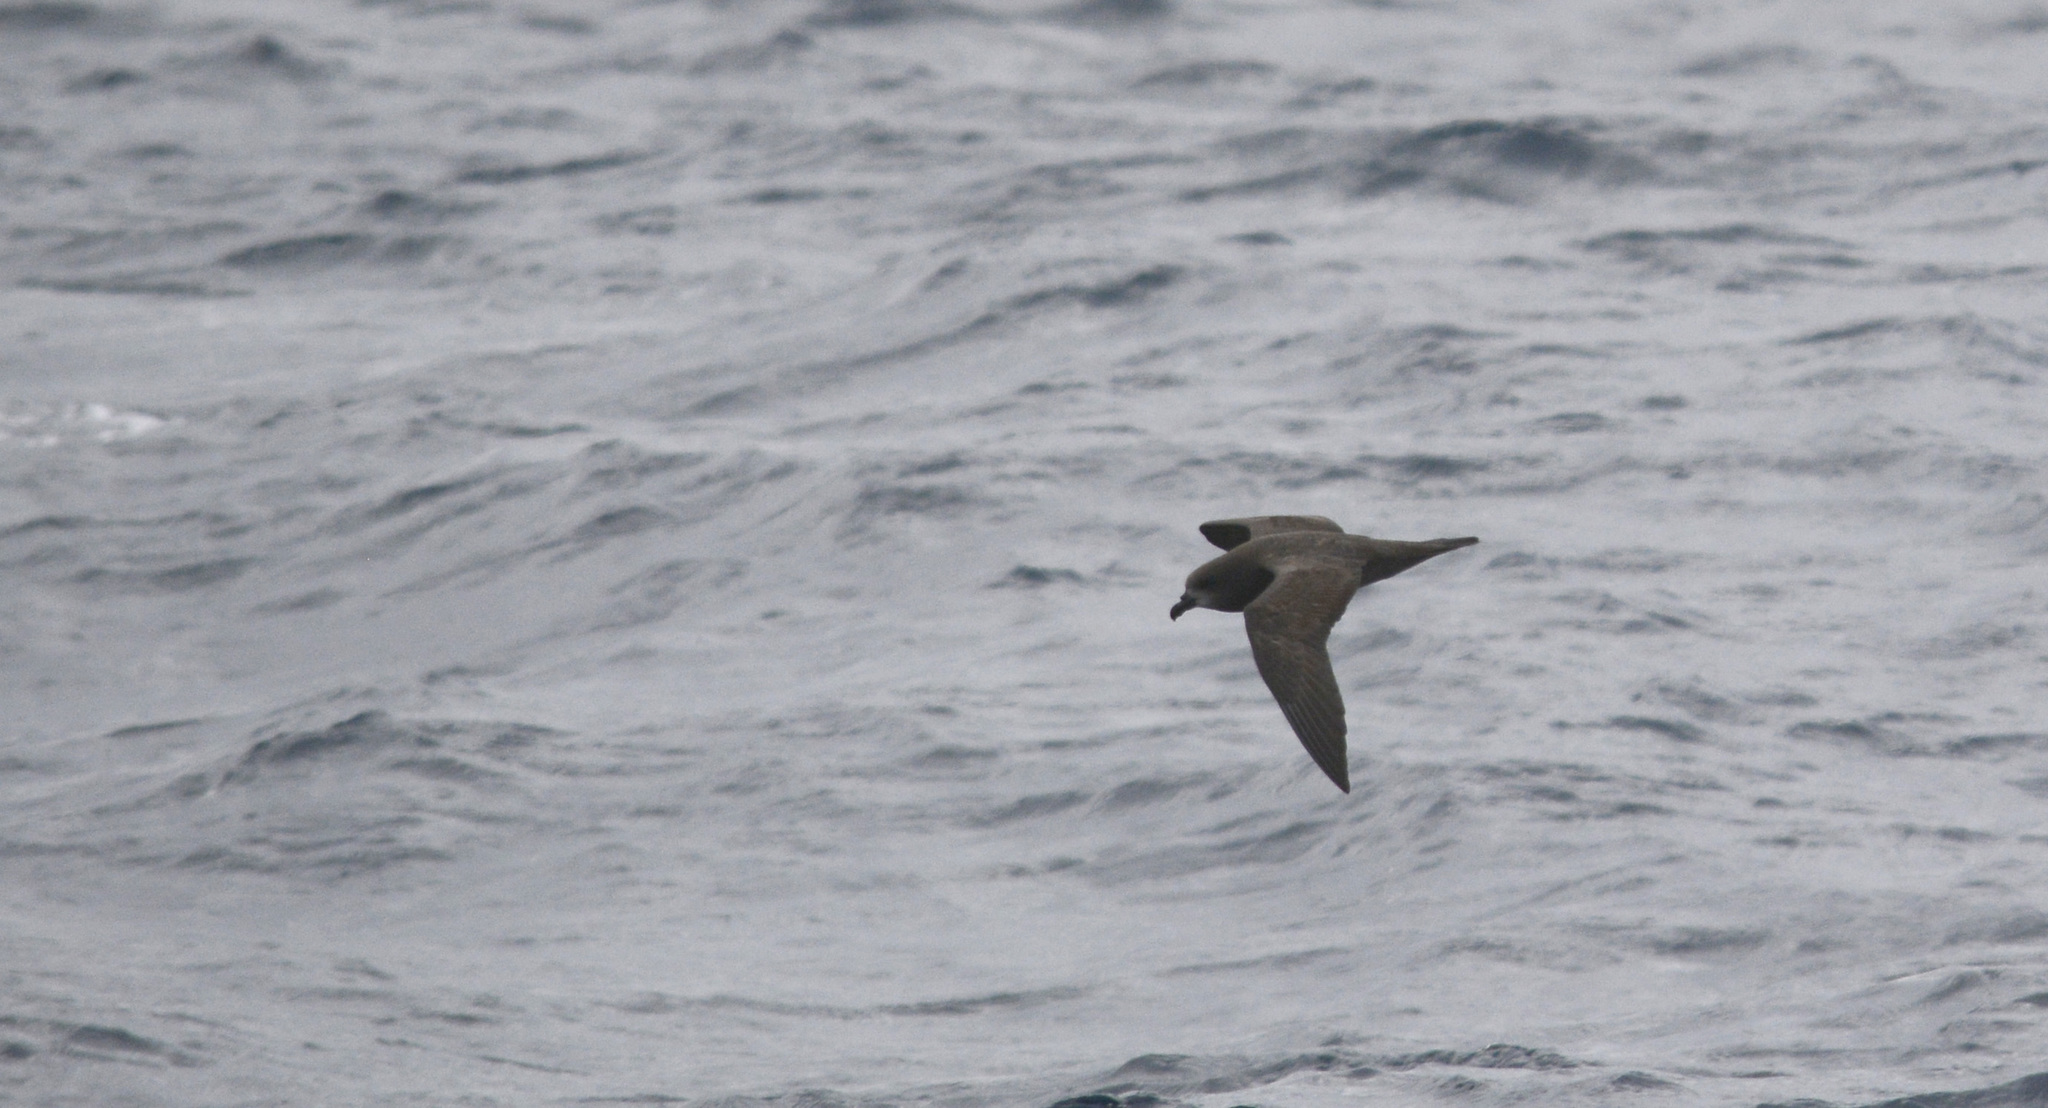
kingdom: Animalia
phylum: Chordata
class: Aves
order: Procellariiformes
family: Procellariidae
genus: Pterodroma
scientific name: Pterodroma macroptera
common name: Great-winged petrel
